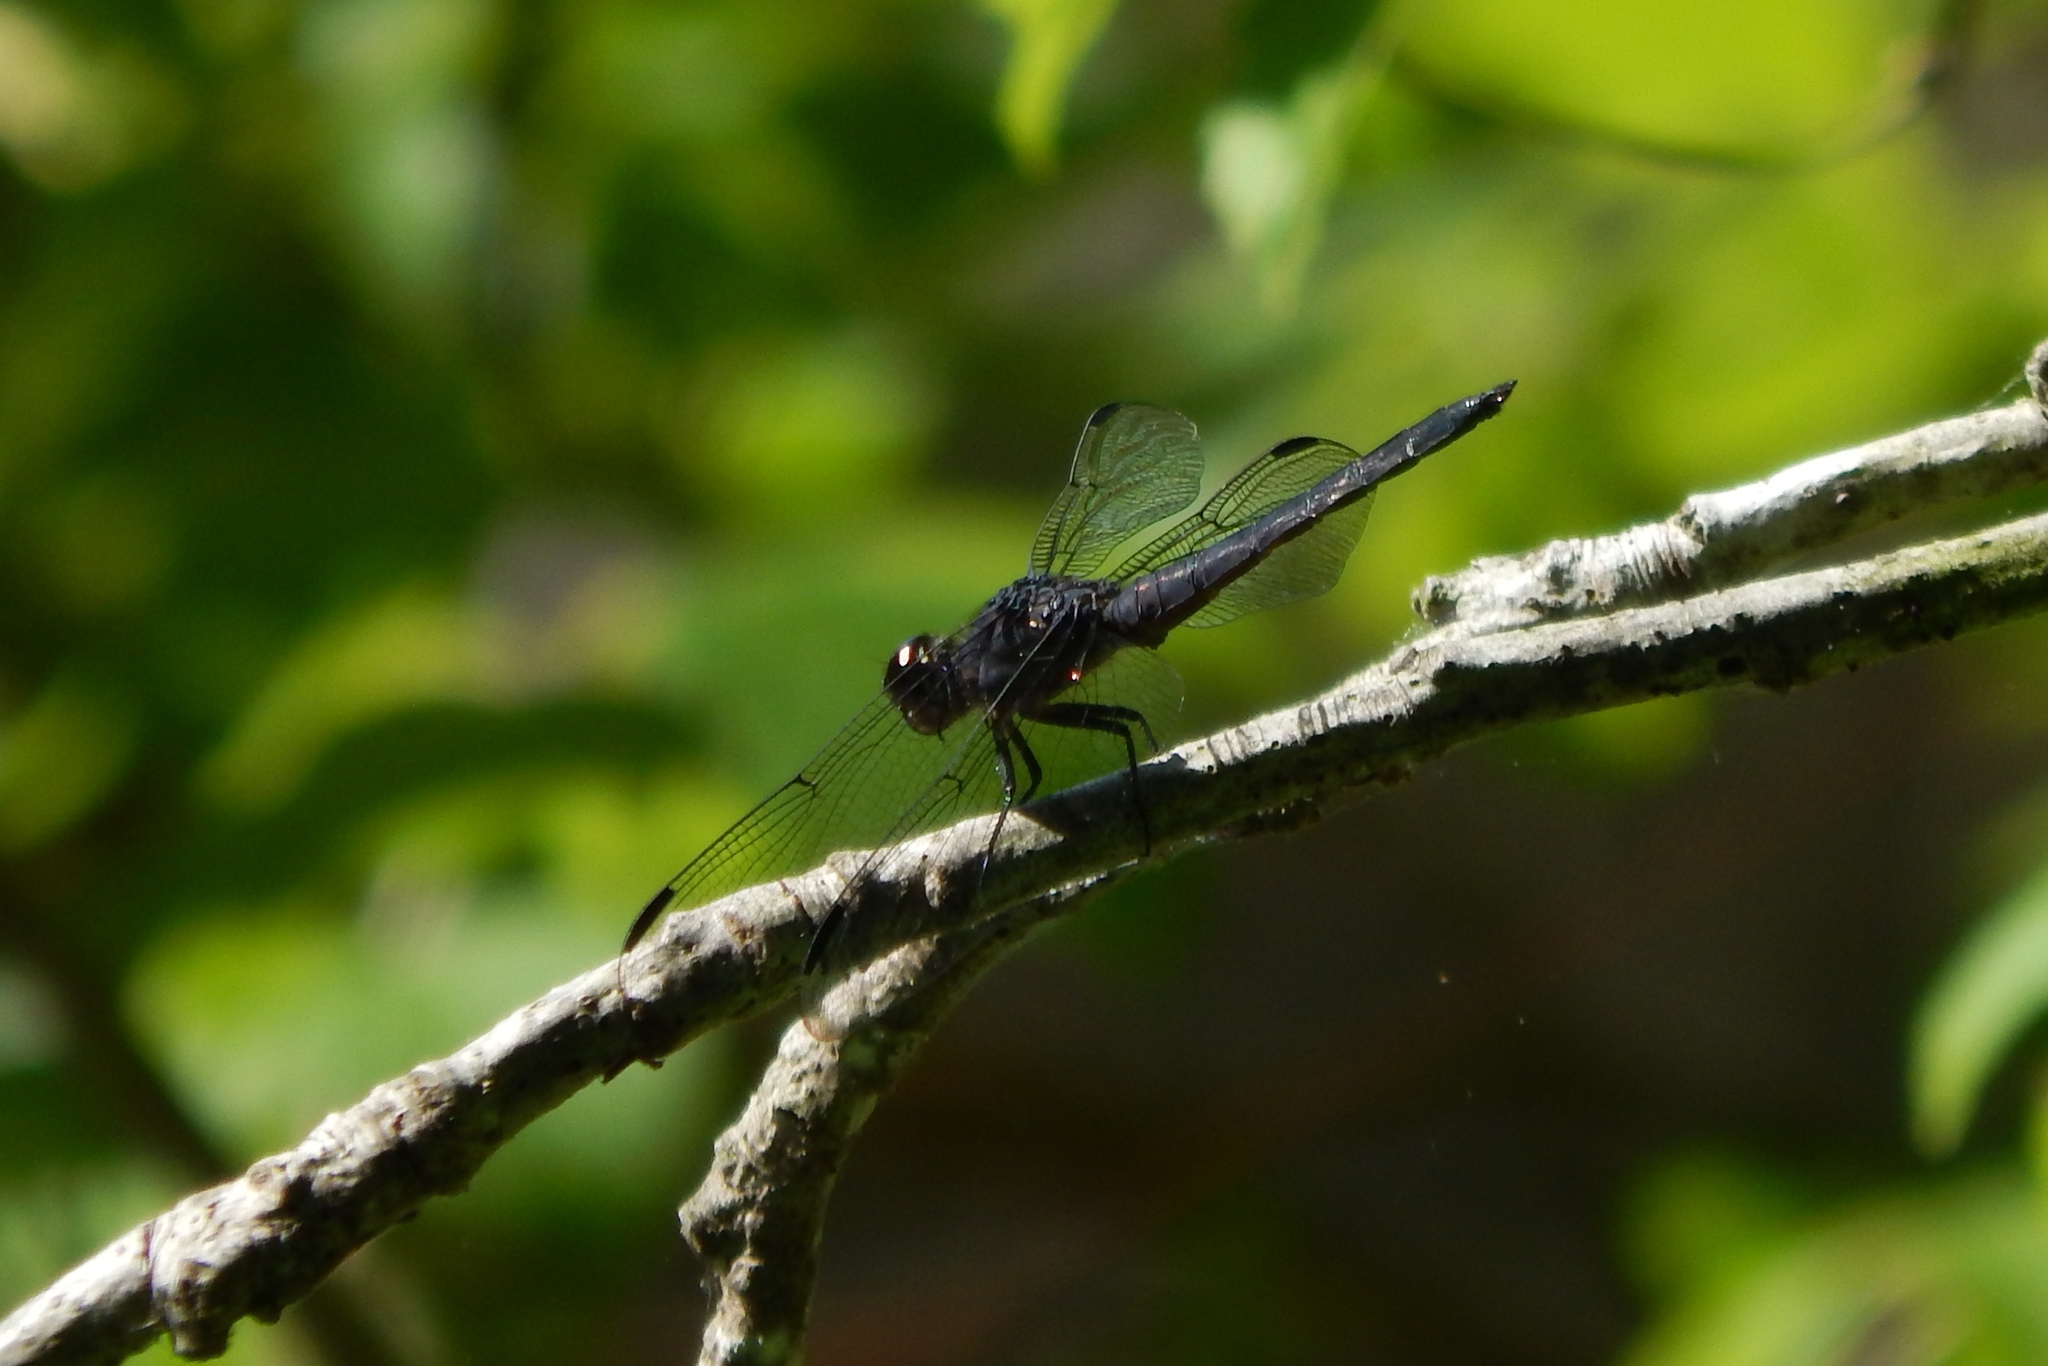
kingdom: Animalia
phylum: Arthropoda
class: Insecta
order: Odonata
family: Libellulidae
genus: Libellula
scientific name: Libellula incesta
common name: Slaty skimmer
